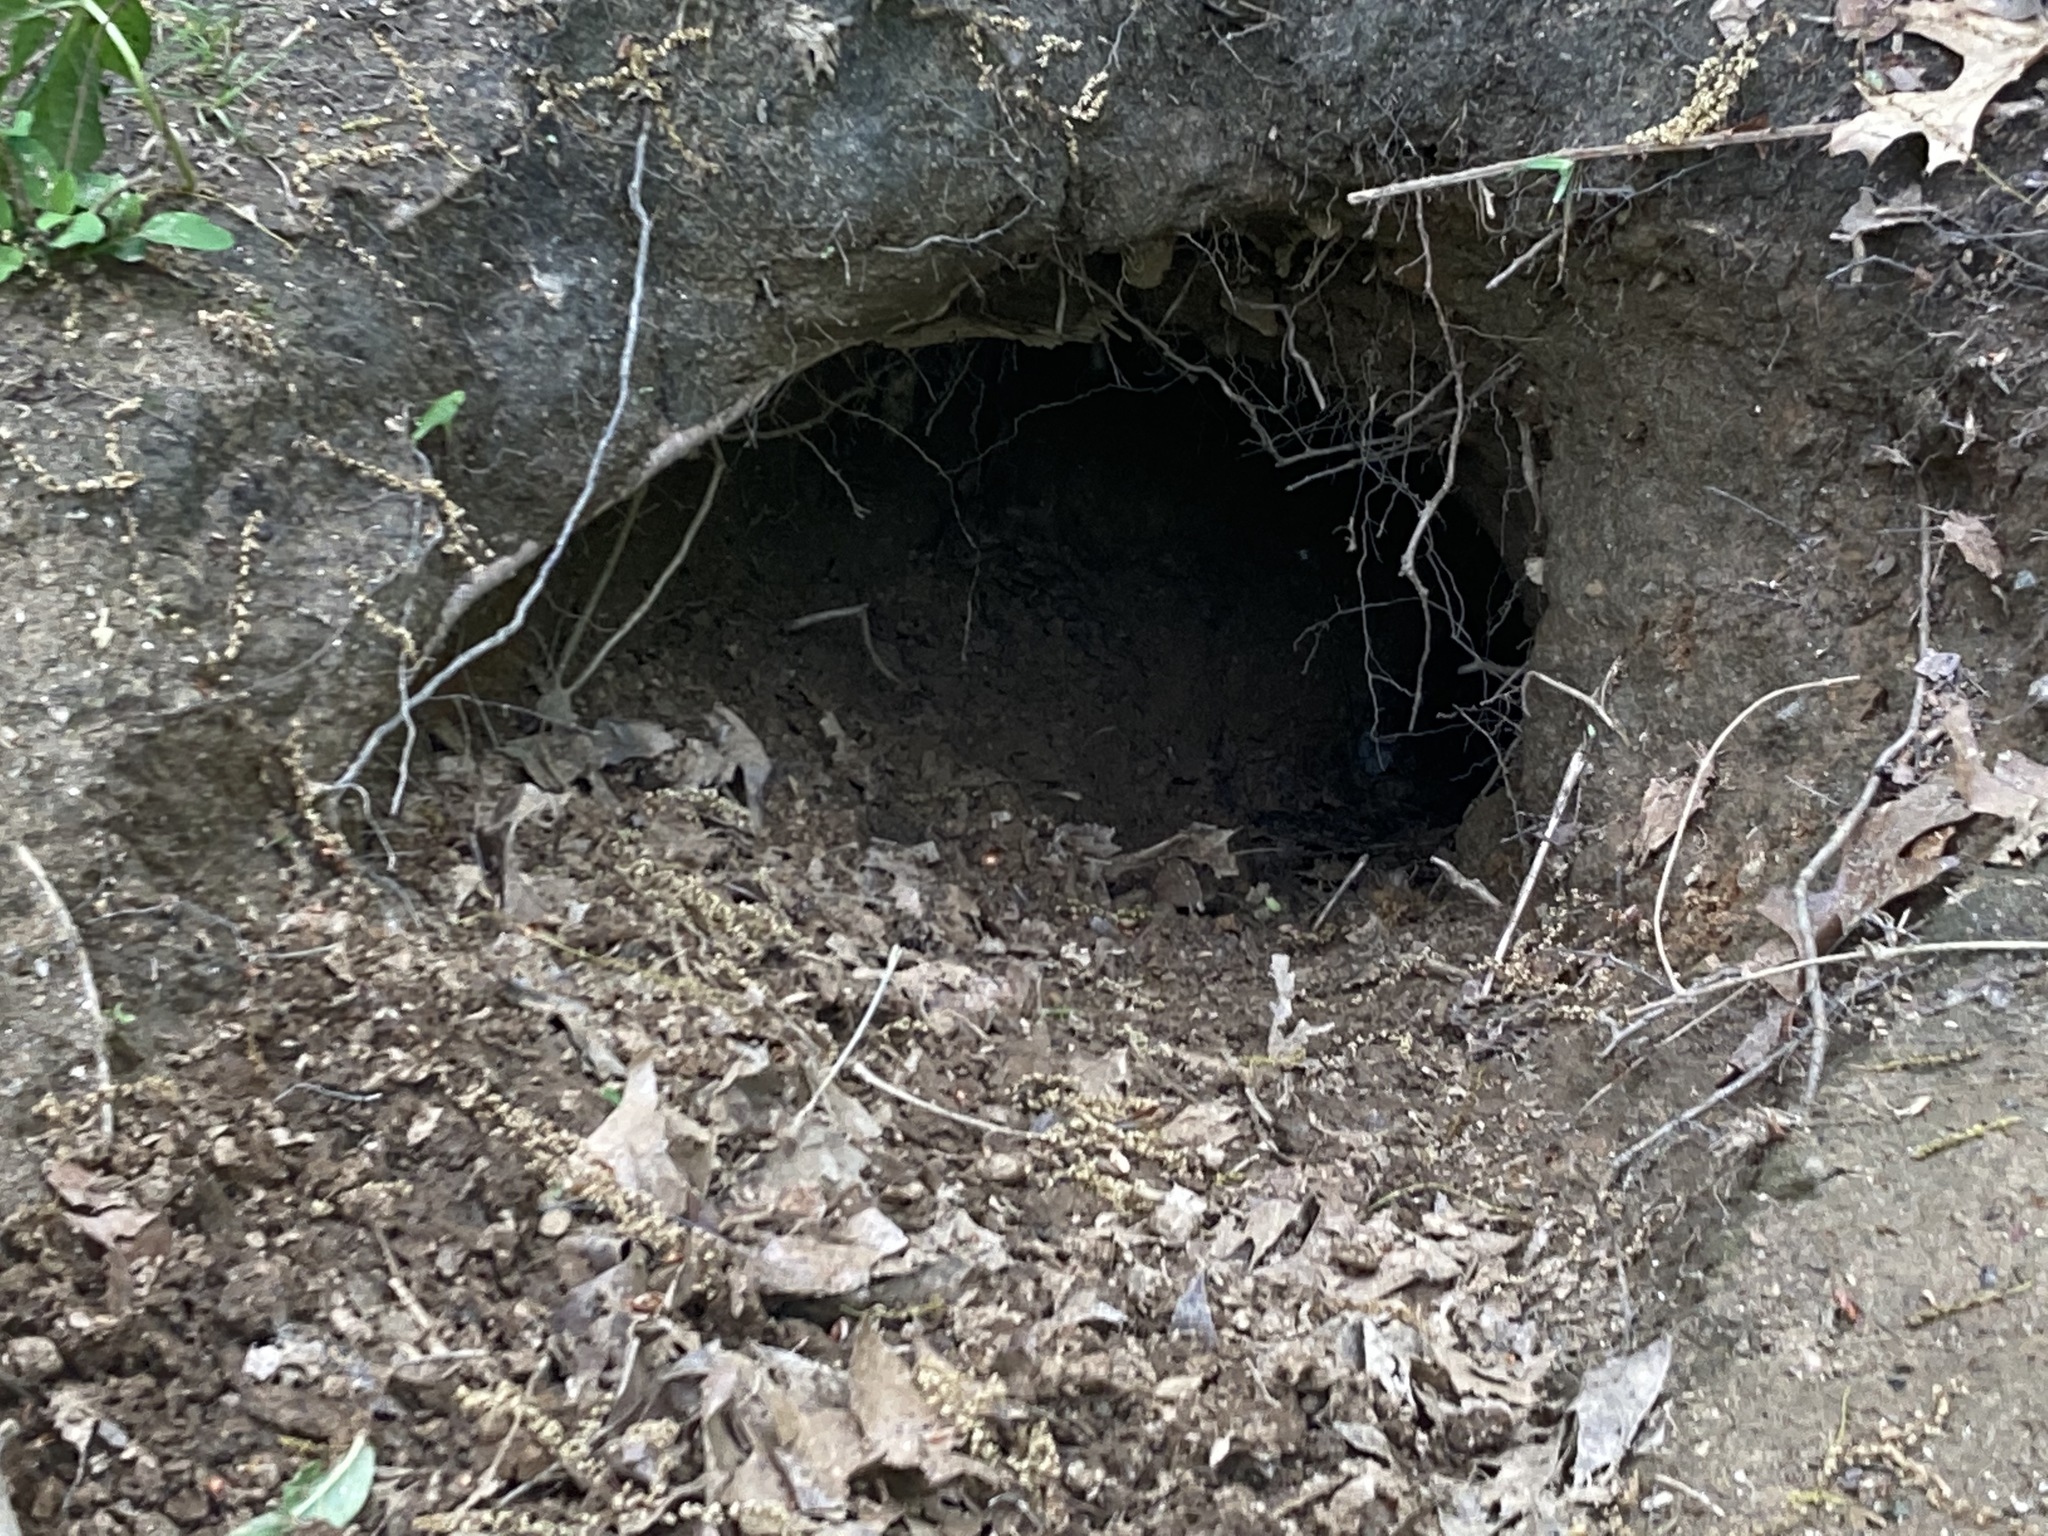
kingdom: Animalia
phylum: Chordata
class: Mammalia
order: Carnivora
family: Canidae
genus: Vulpes
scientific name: Vulpes vulpes
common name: Red fox
